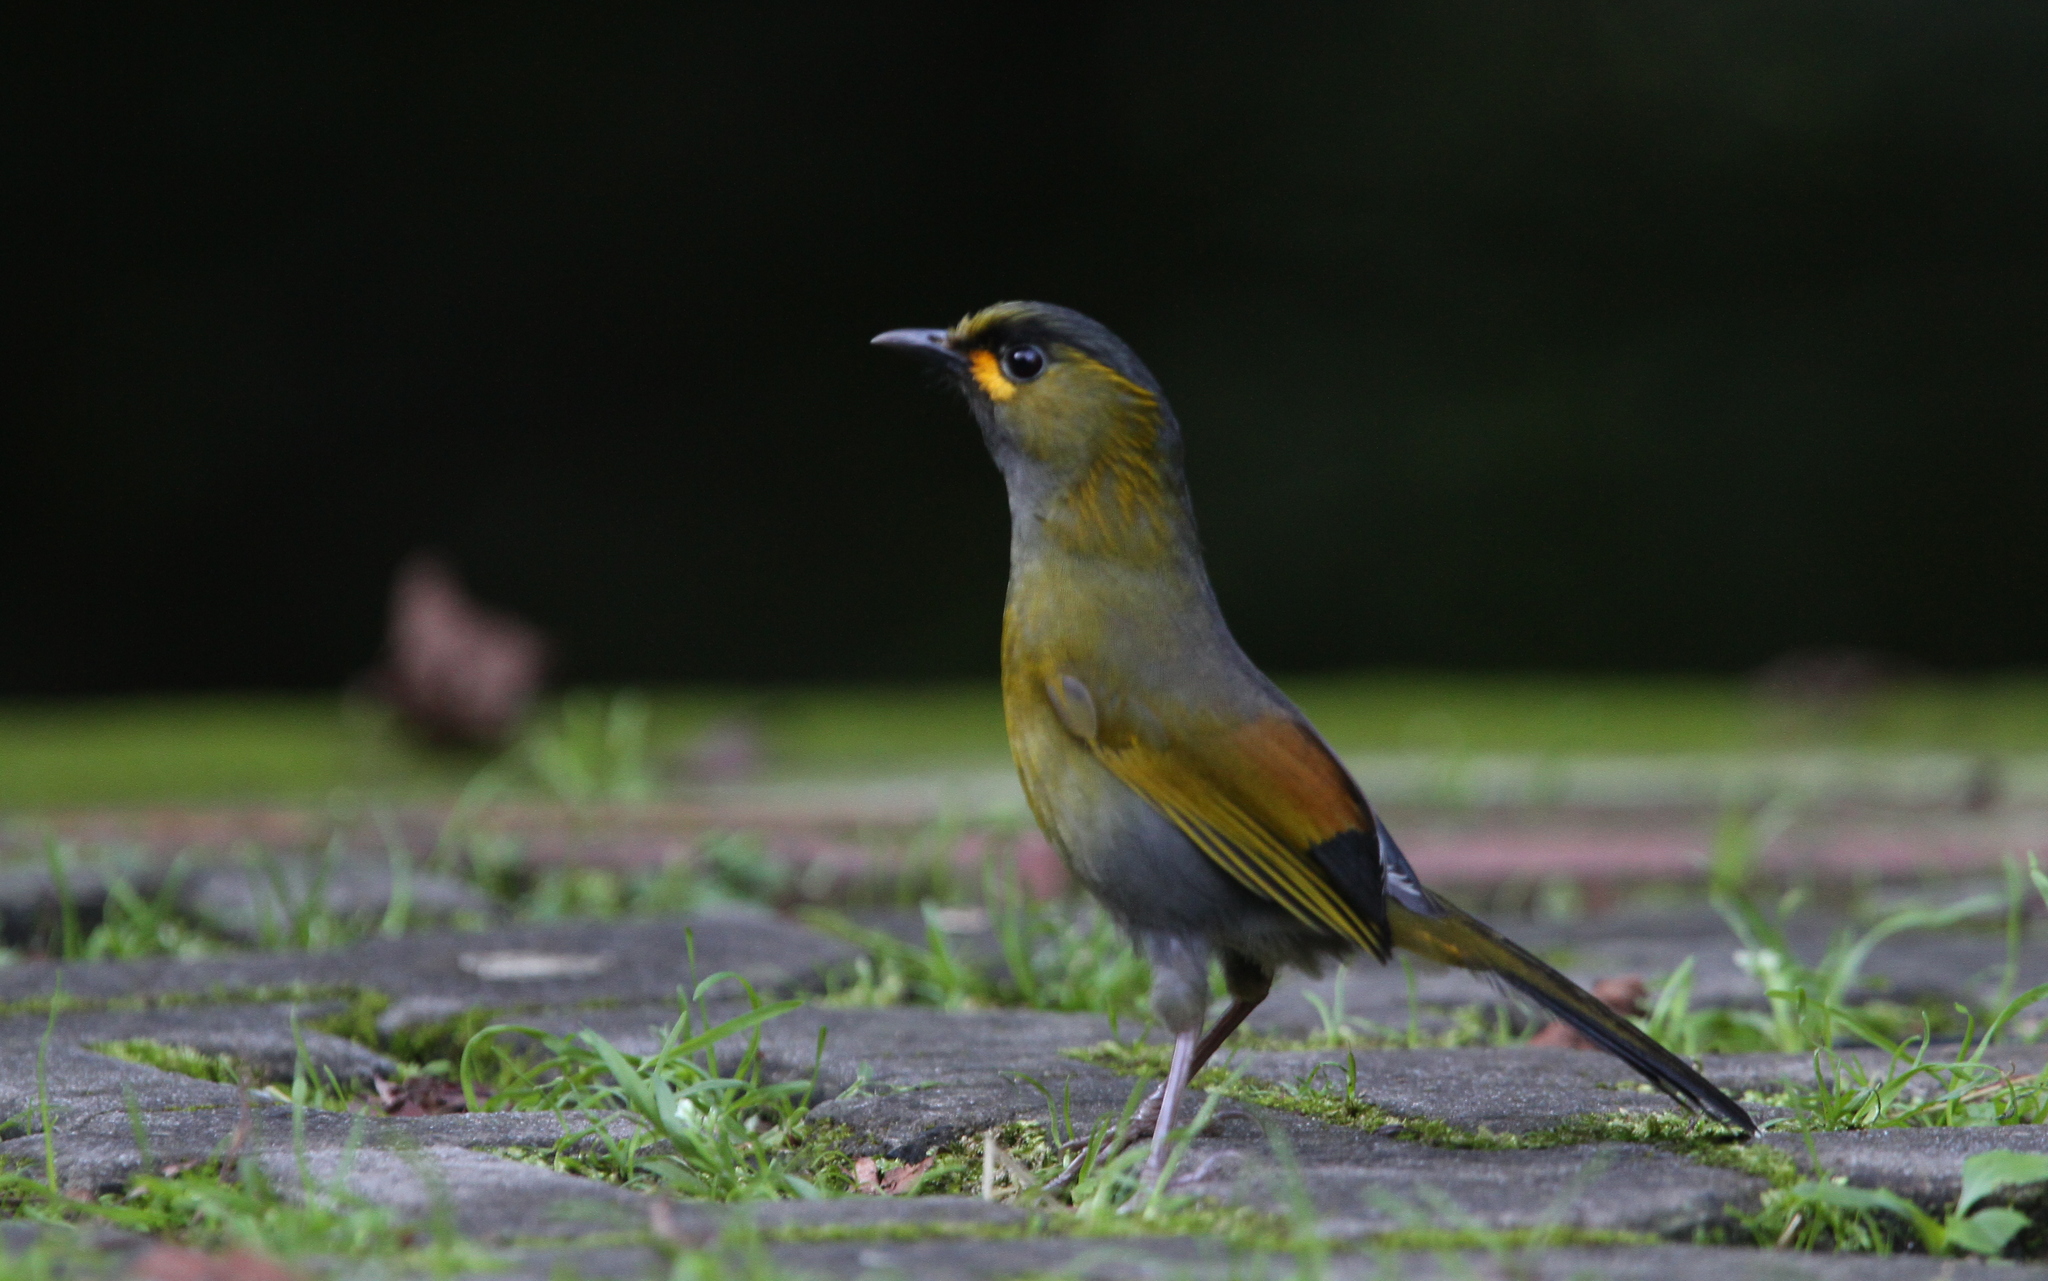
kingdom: Animalia
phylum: Chordata
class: Aves
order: Passeriformes
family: Leiothrichidae
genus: Liocichla
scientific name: Liocichla steerii
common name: Steere's liocichla
